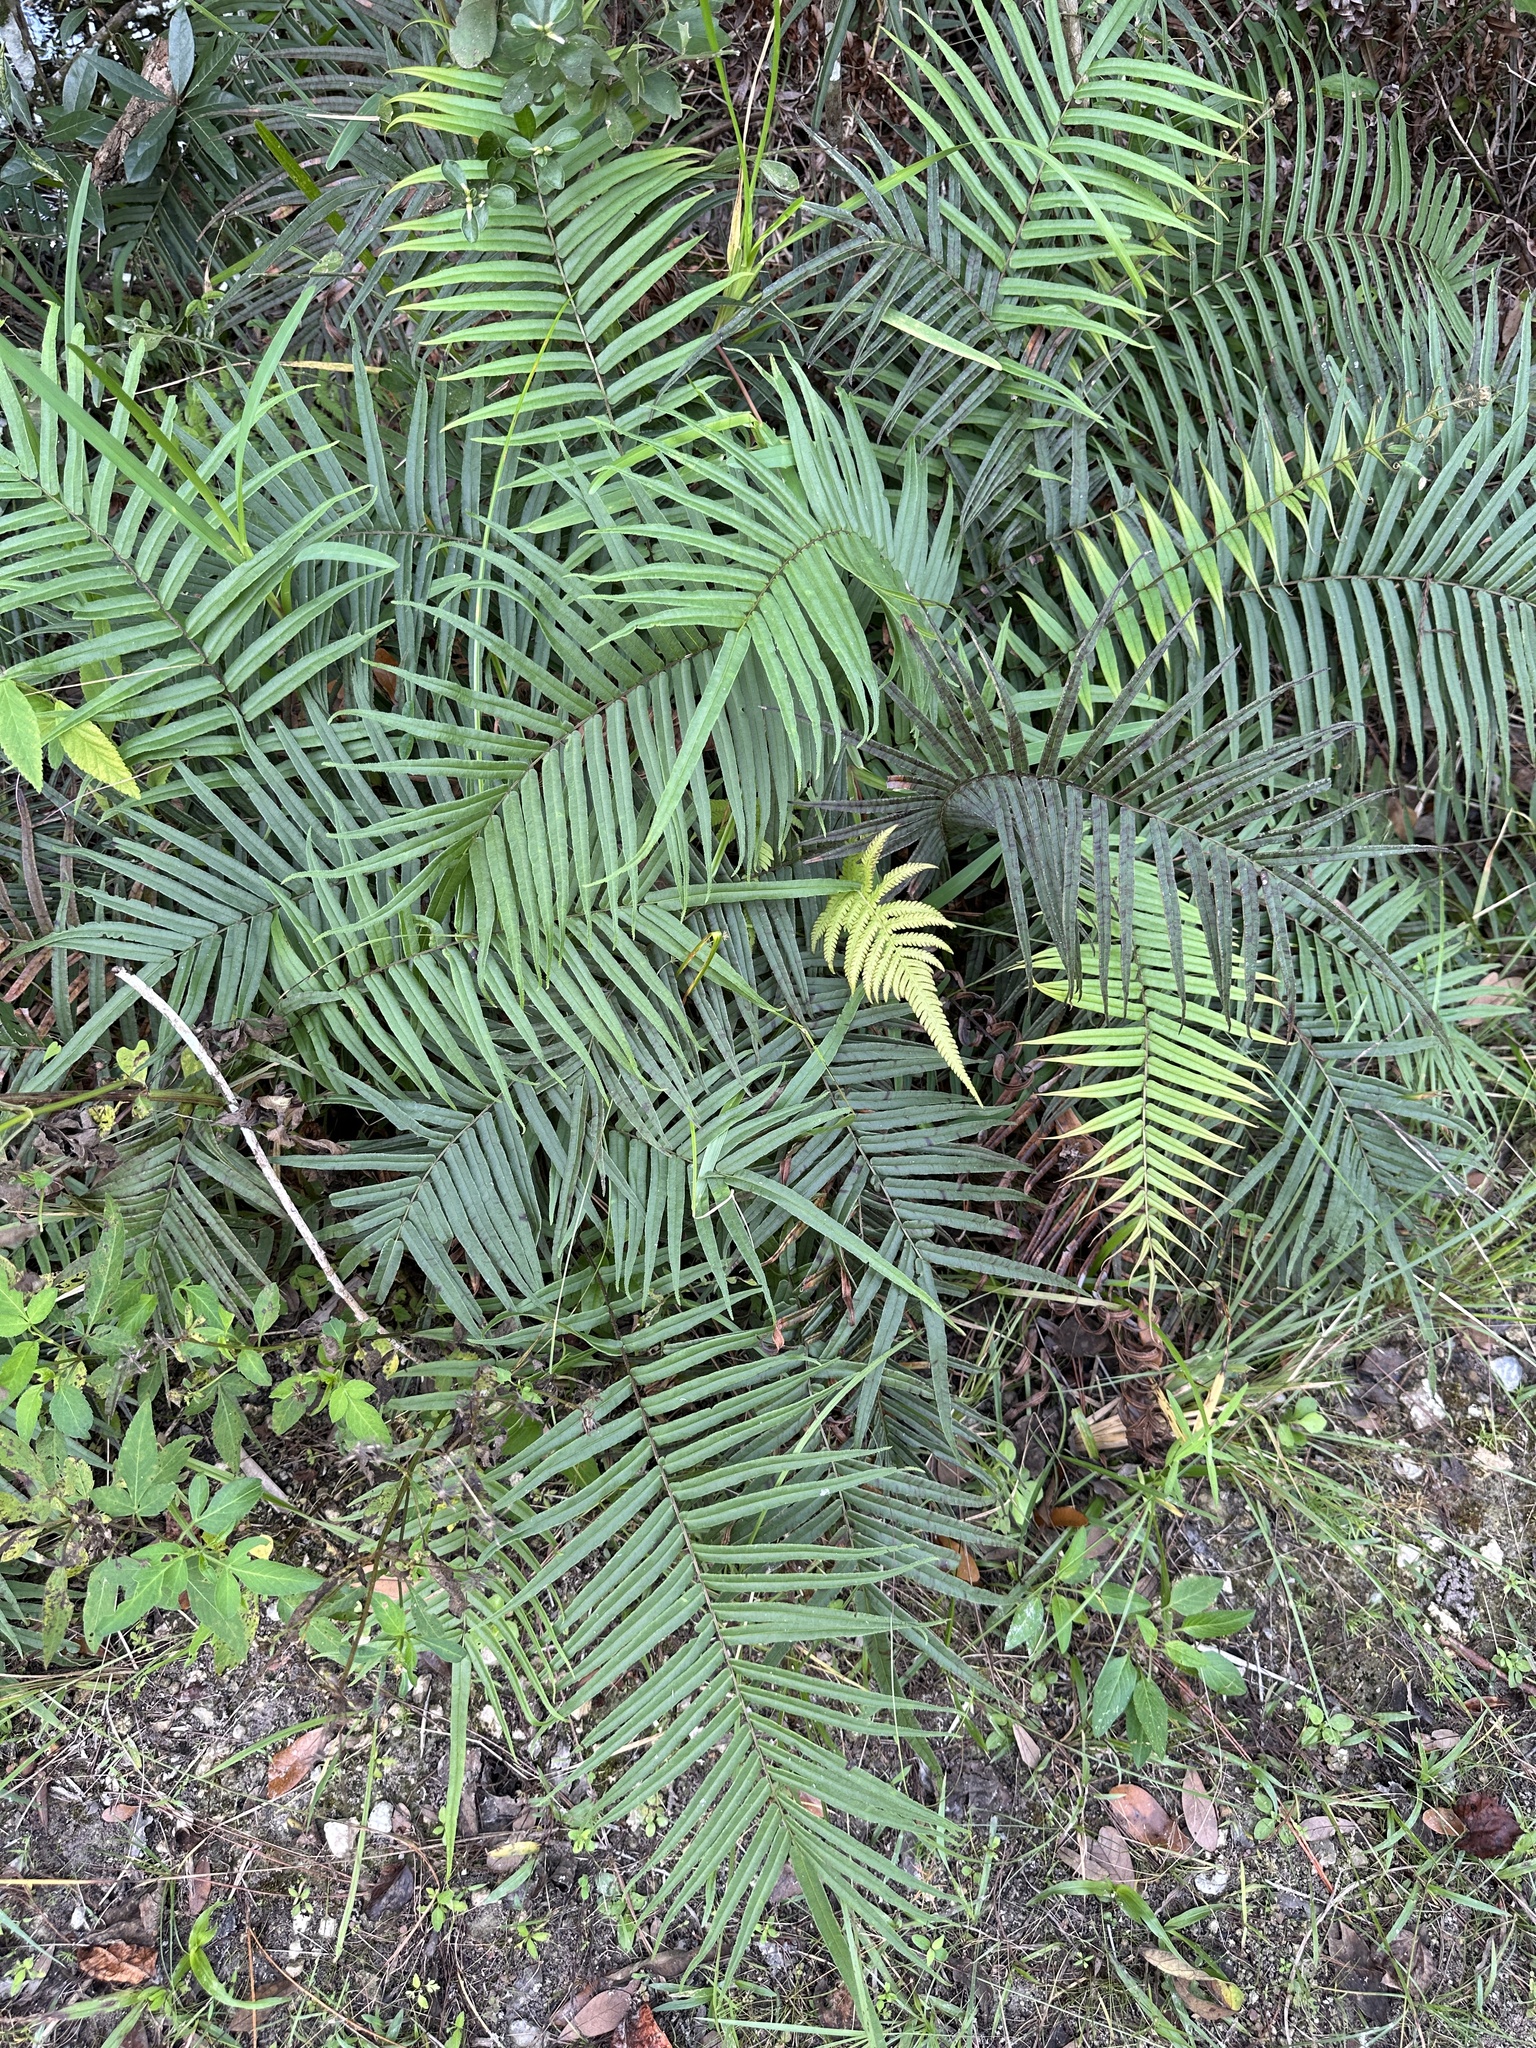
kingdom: Plantae
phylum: Tracheophyta
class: Polypodiopsida
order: Polypodiales
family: Pteridaceae
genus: Pteris
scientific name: Pteris vittata
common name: Ladder brake
